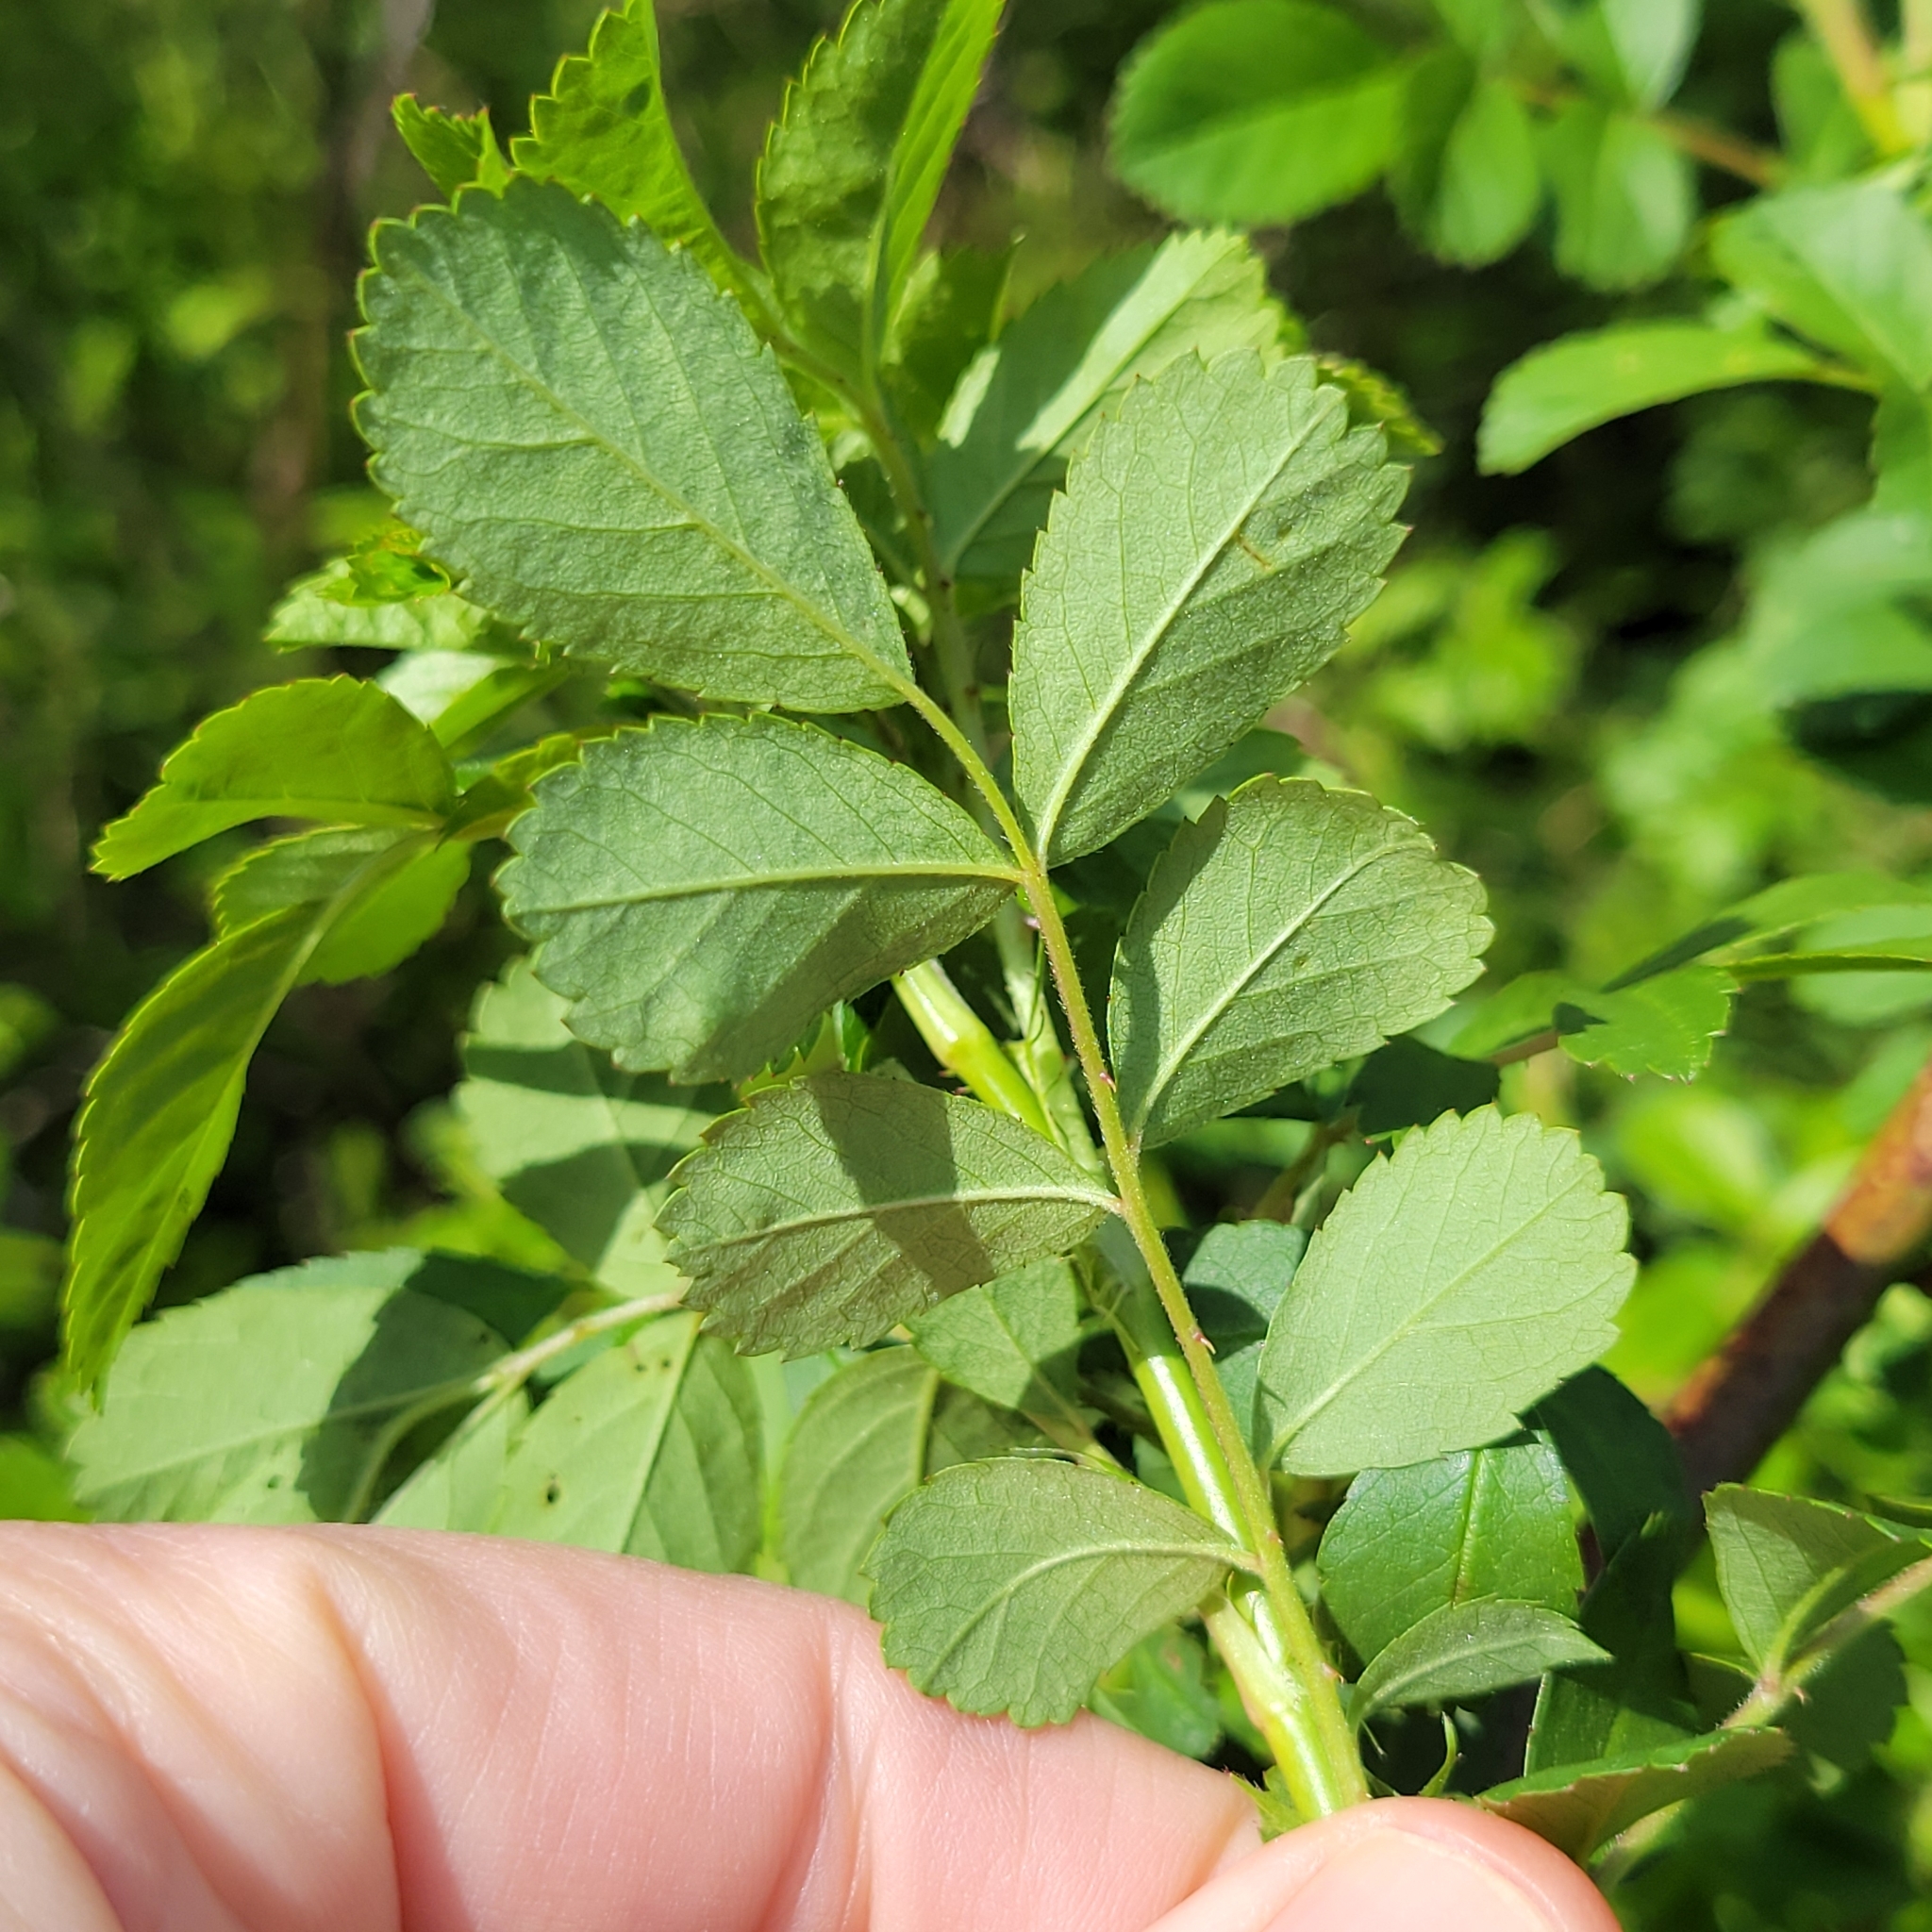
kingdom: Plantae
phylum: Tracheophyta
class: Magnoliopsida
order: Rosales
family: Rosaceae
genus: Rosa
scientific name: Rosa multiflora
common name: Multiflora rose
